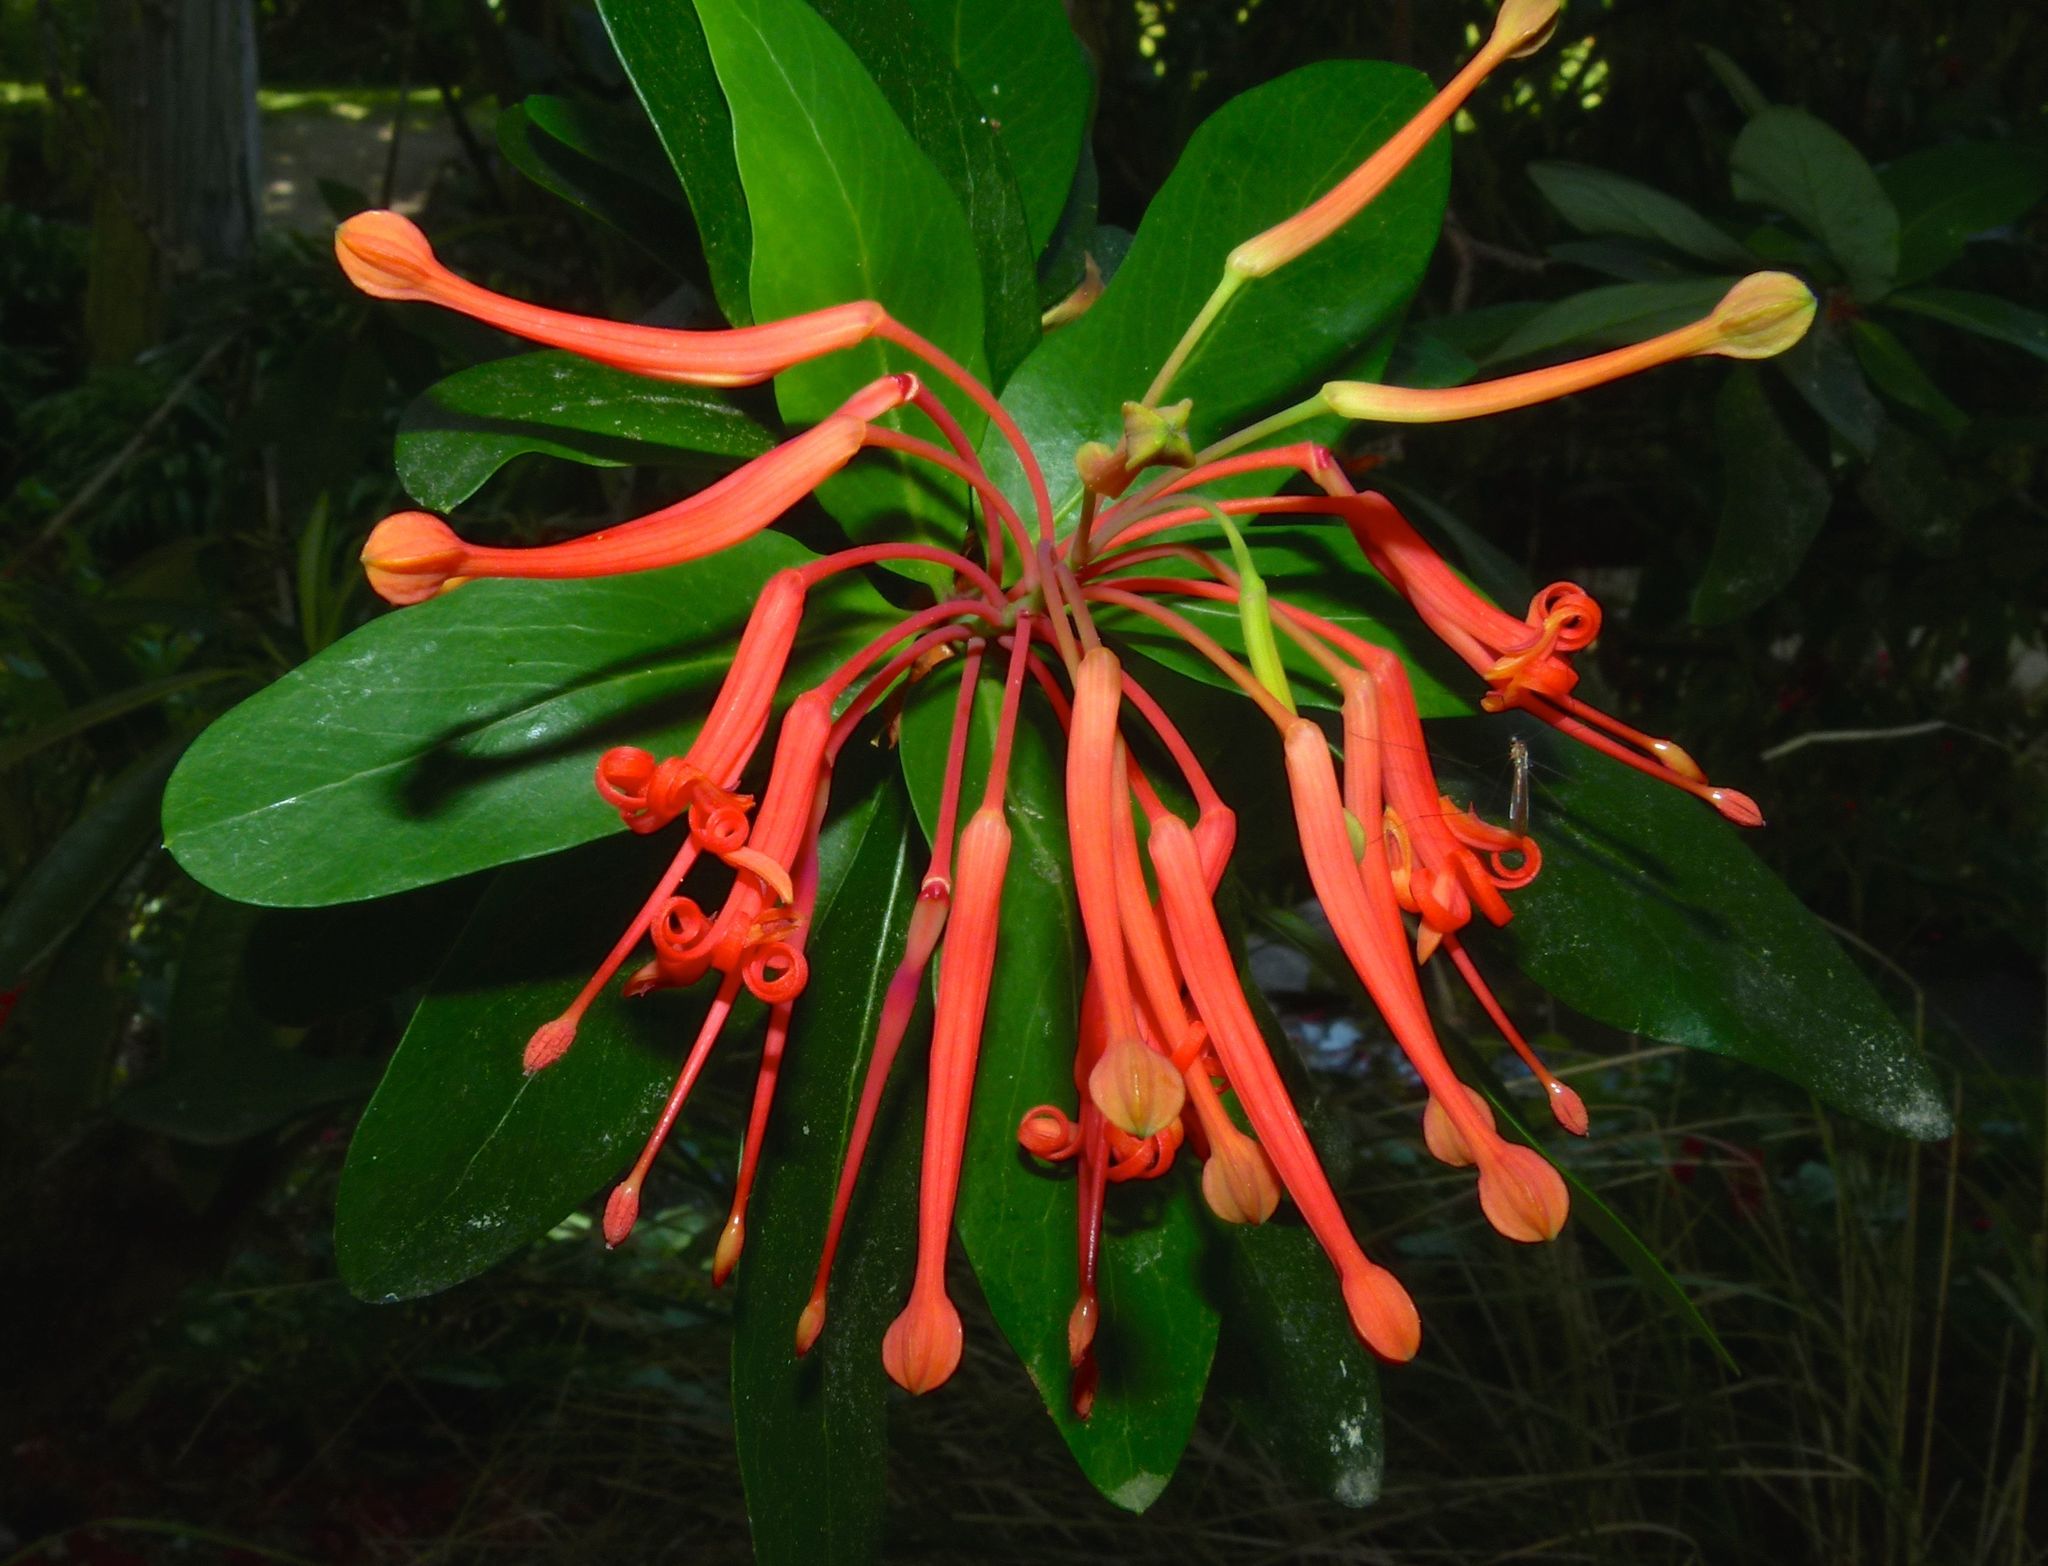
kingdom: Plantae
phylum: Tracheophyta
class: Magnoliopsida
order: Proteales
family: Proteaceae
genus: Embothrium
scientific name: Embothrium coccineum
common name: Chilean firebush
